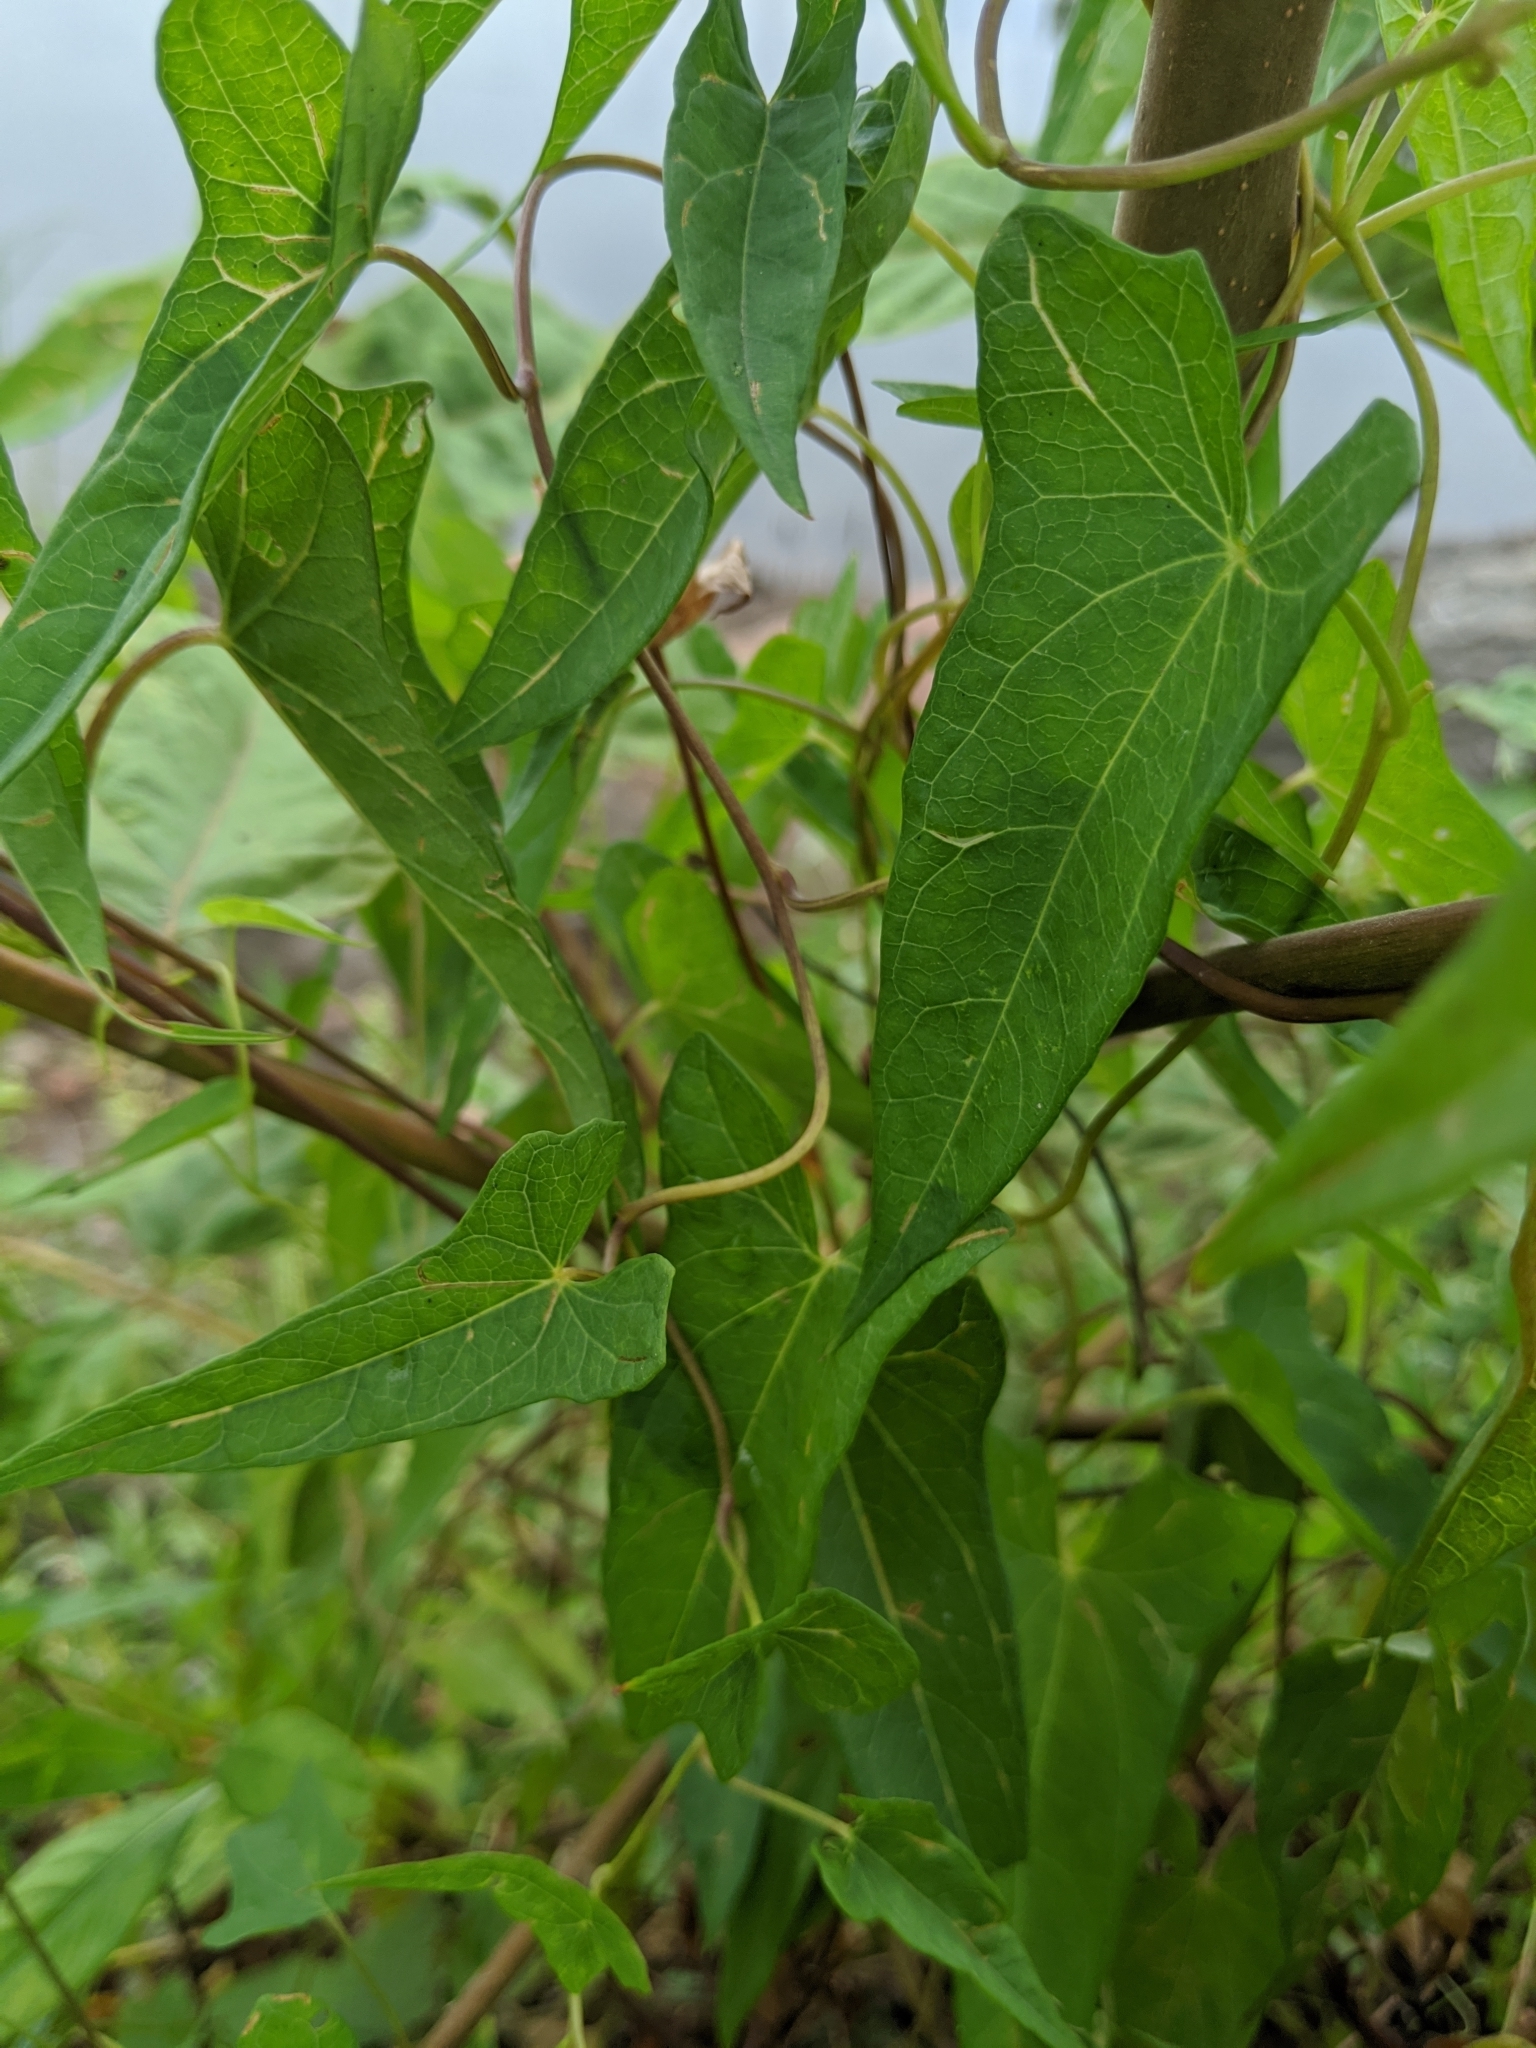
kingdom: Plantae
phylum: Tracheophyta
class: Magnoliopsida
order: Solanales
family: Convolvulaceae
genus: Calystegia
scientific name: Calystegia sepium
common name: Hedge bindweed
